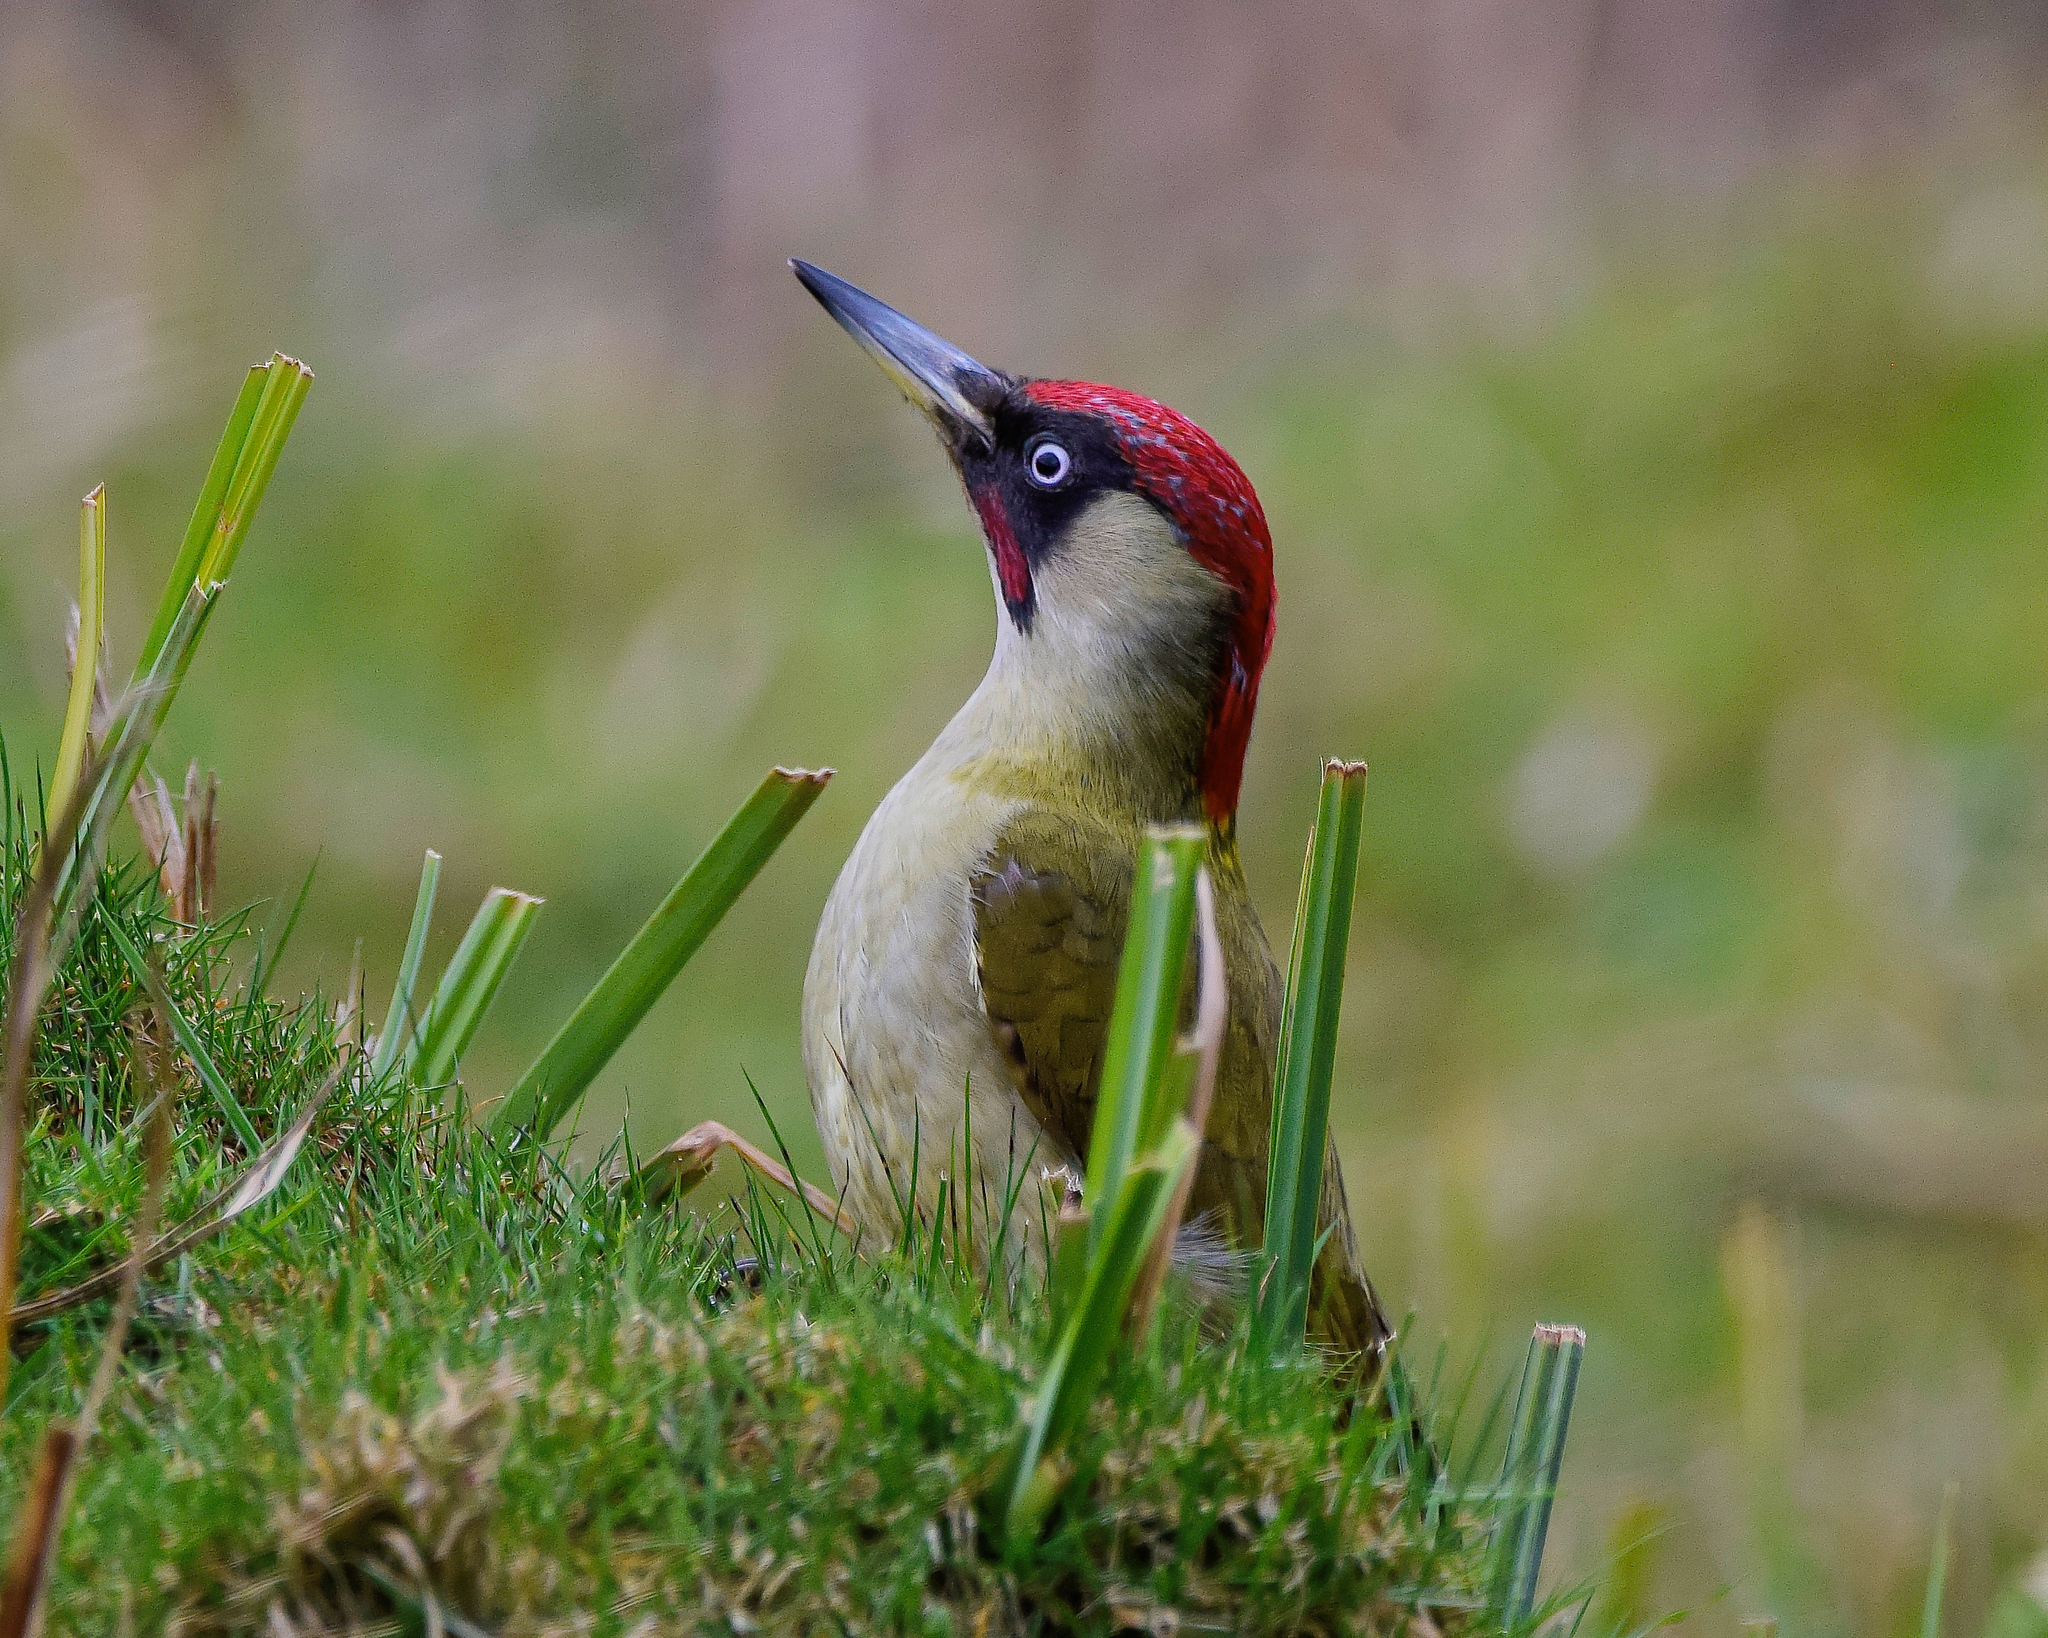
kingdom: Animalia
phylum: Chordata
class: Aves
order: Piciformes
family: Picidae
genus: Picus
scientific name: Picus viridis
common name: European green woodpecker
